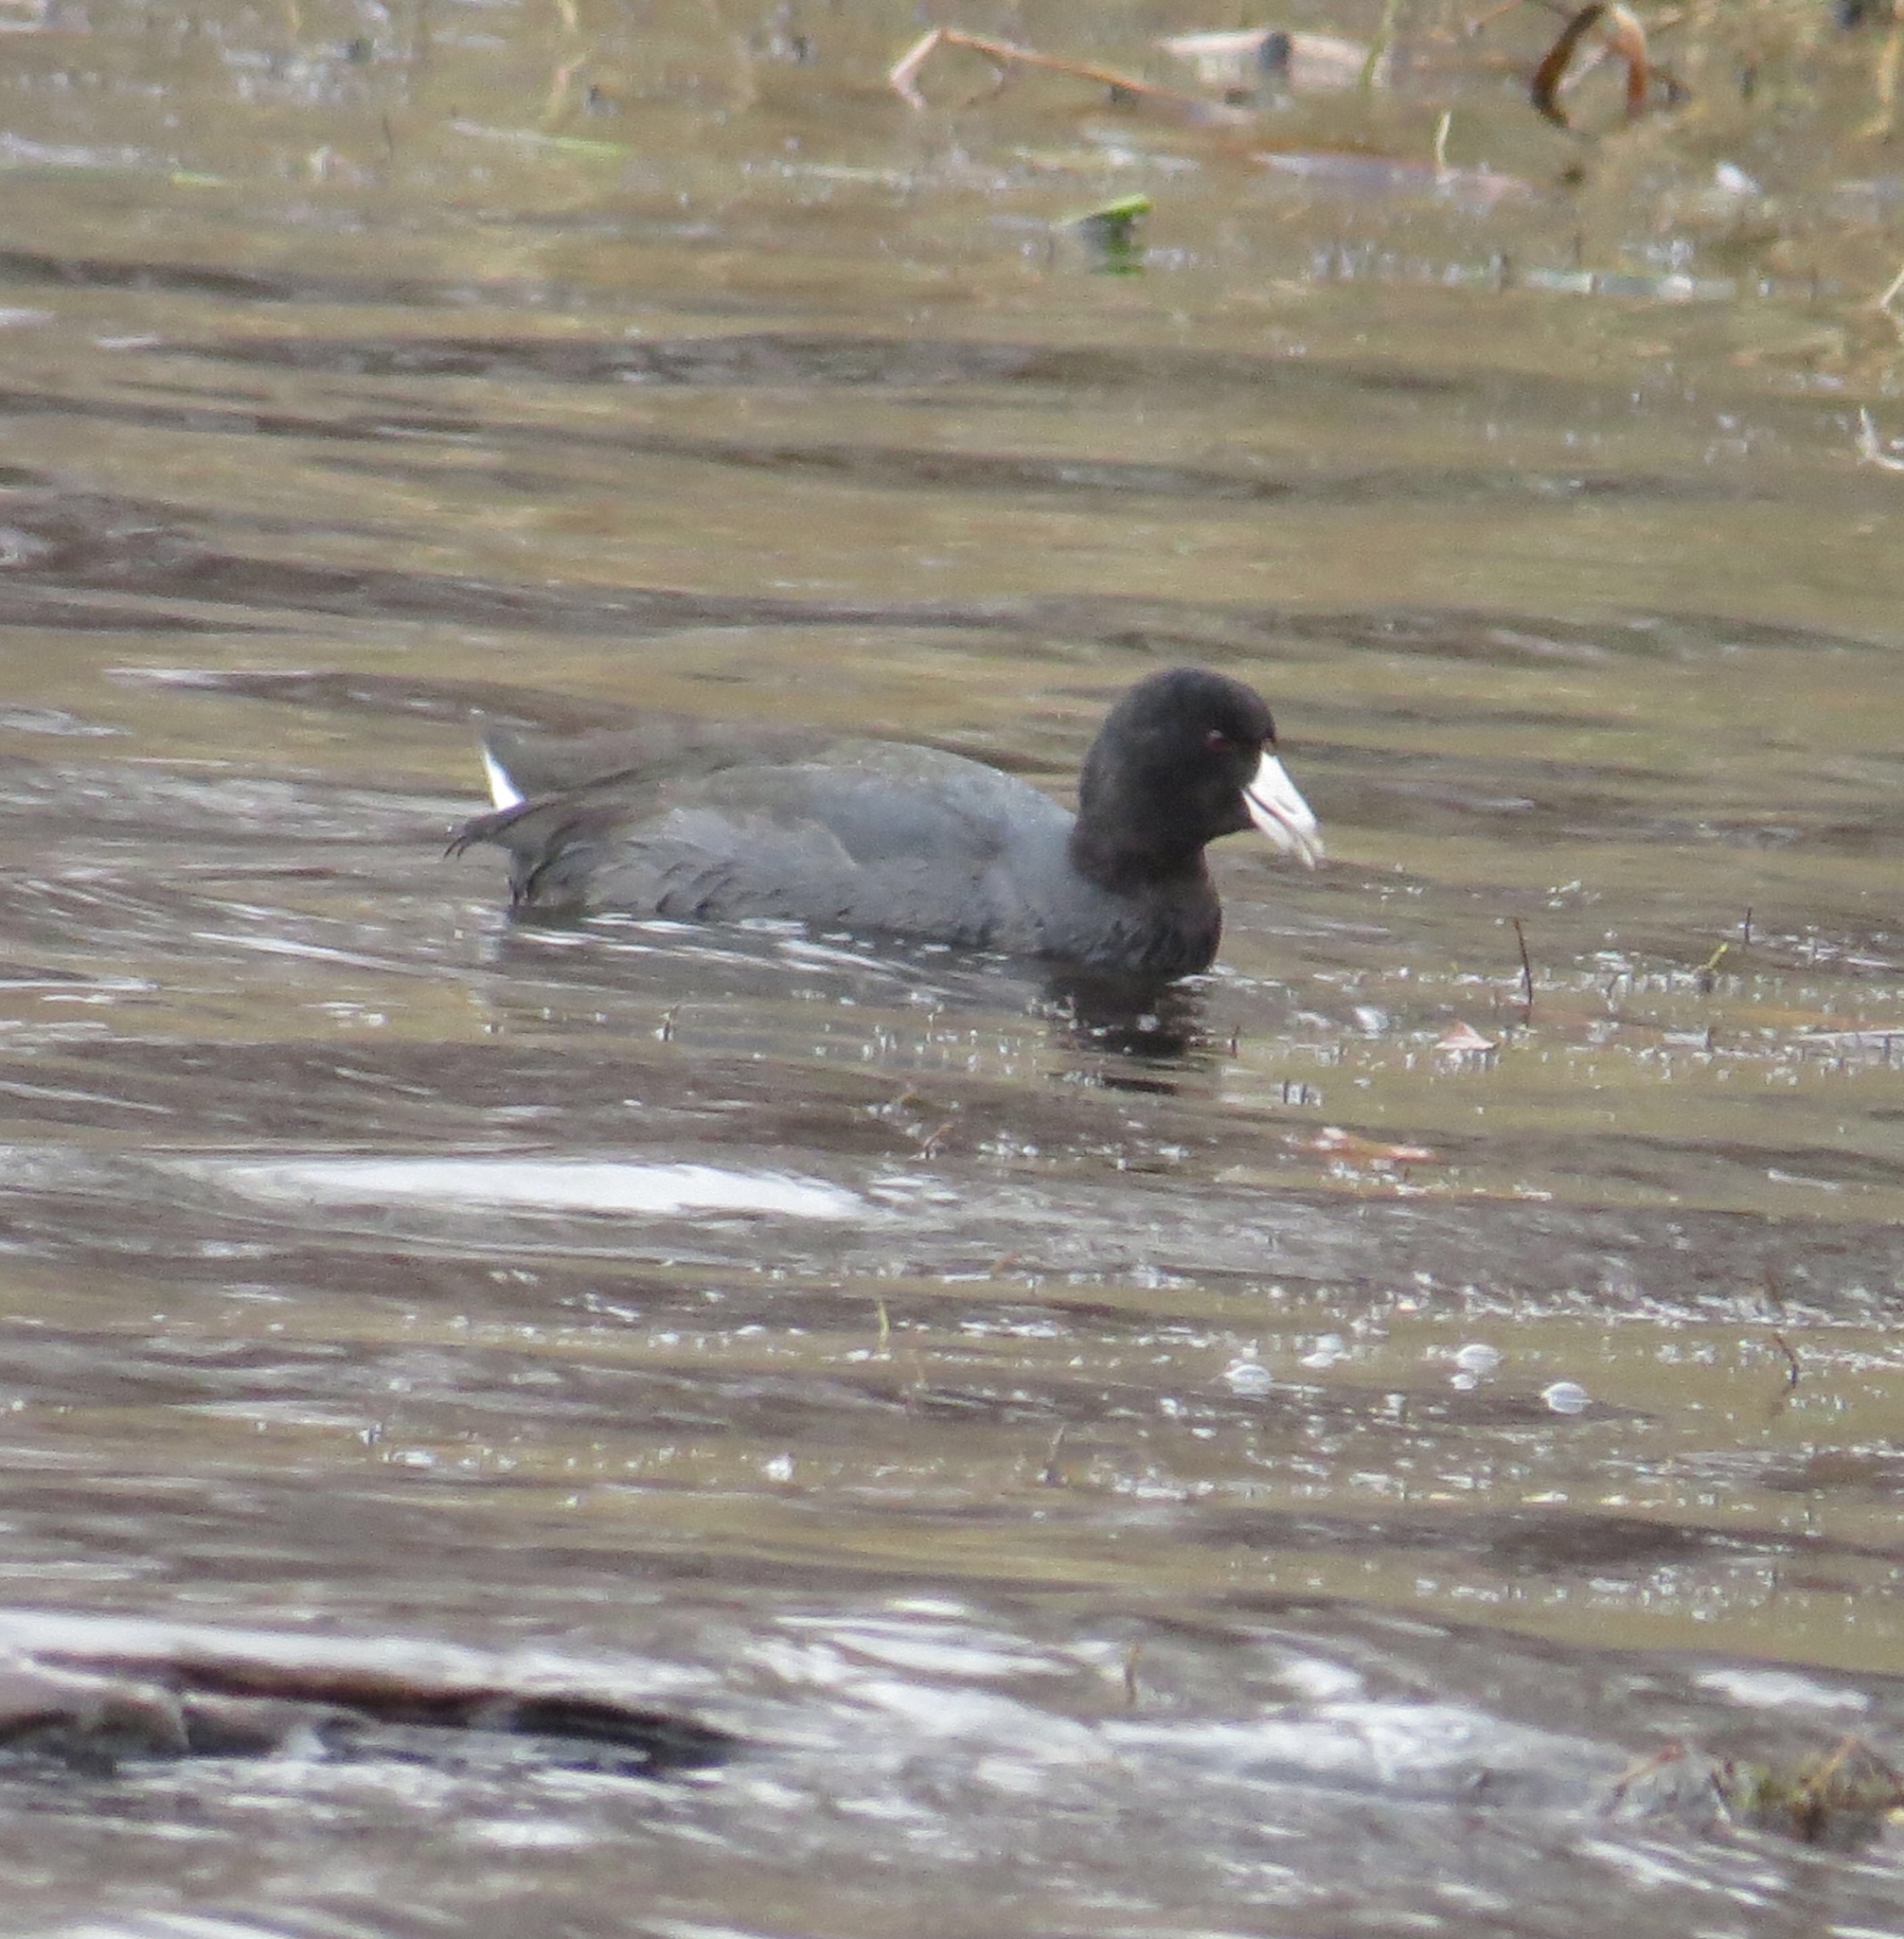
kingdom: Animalia
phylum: Chordata
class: Aves
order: Gruiformes
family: Rallidae
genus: Fulica
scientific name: Fulica americana
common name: American coot
